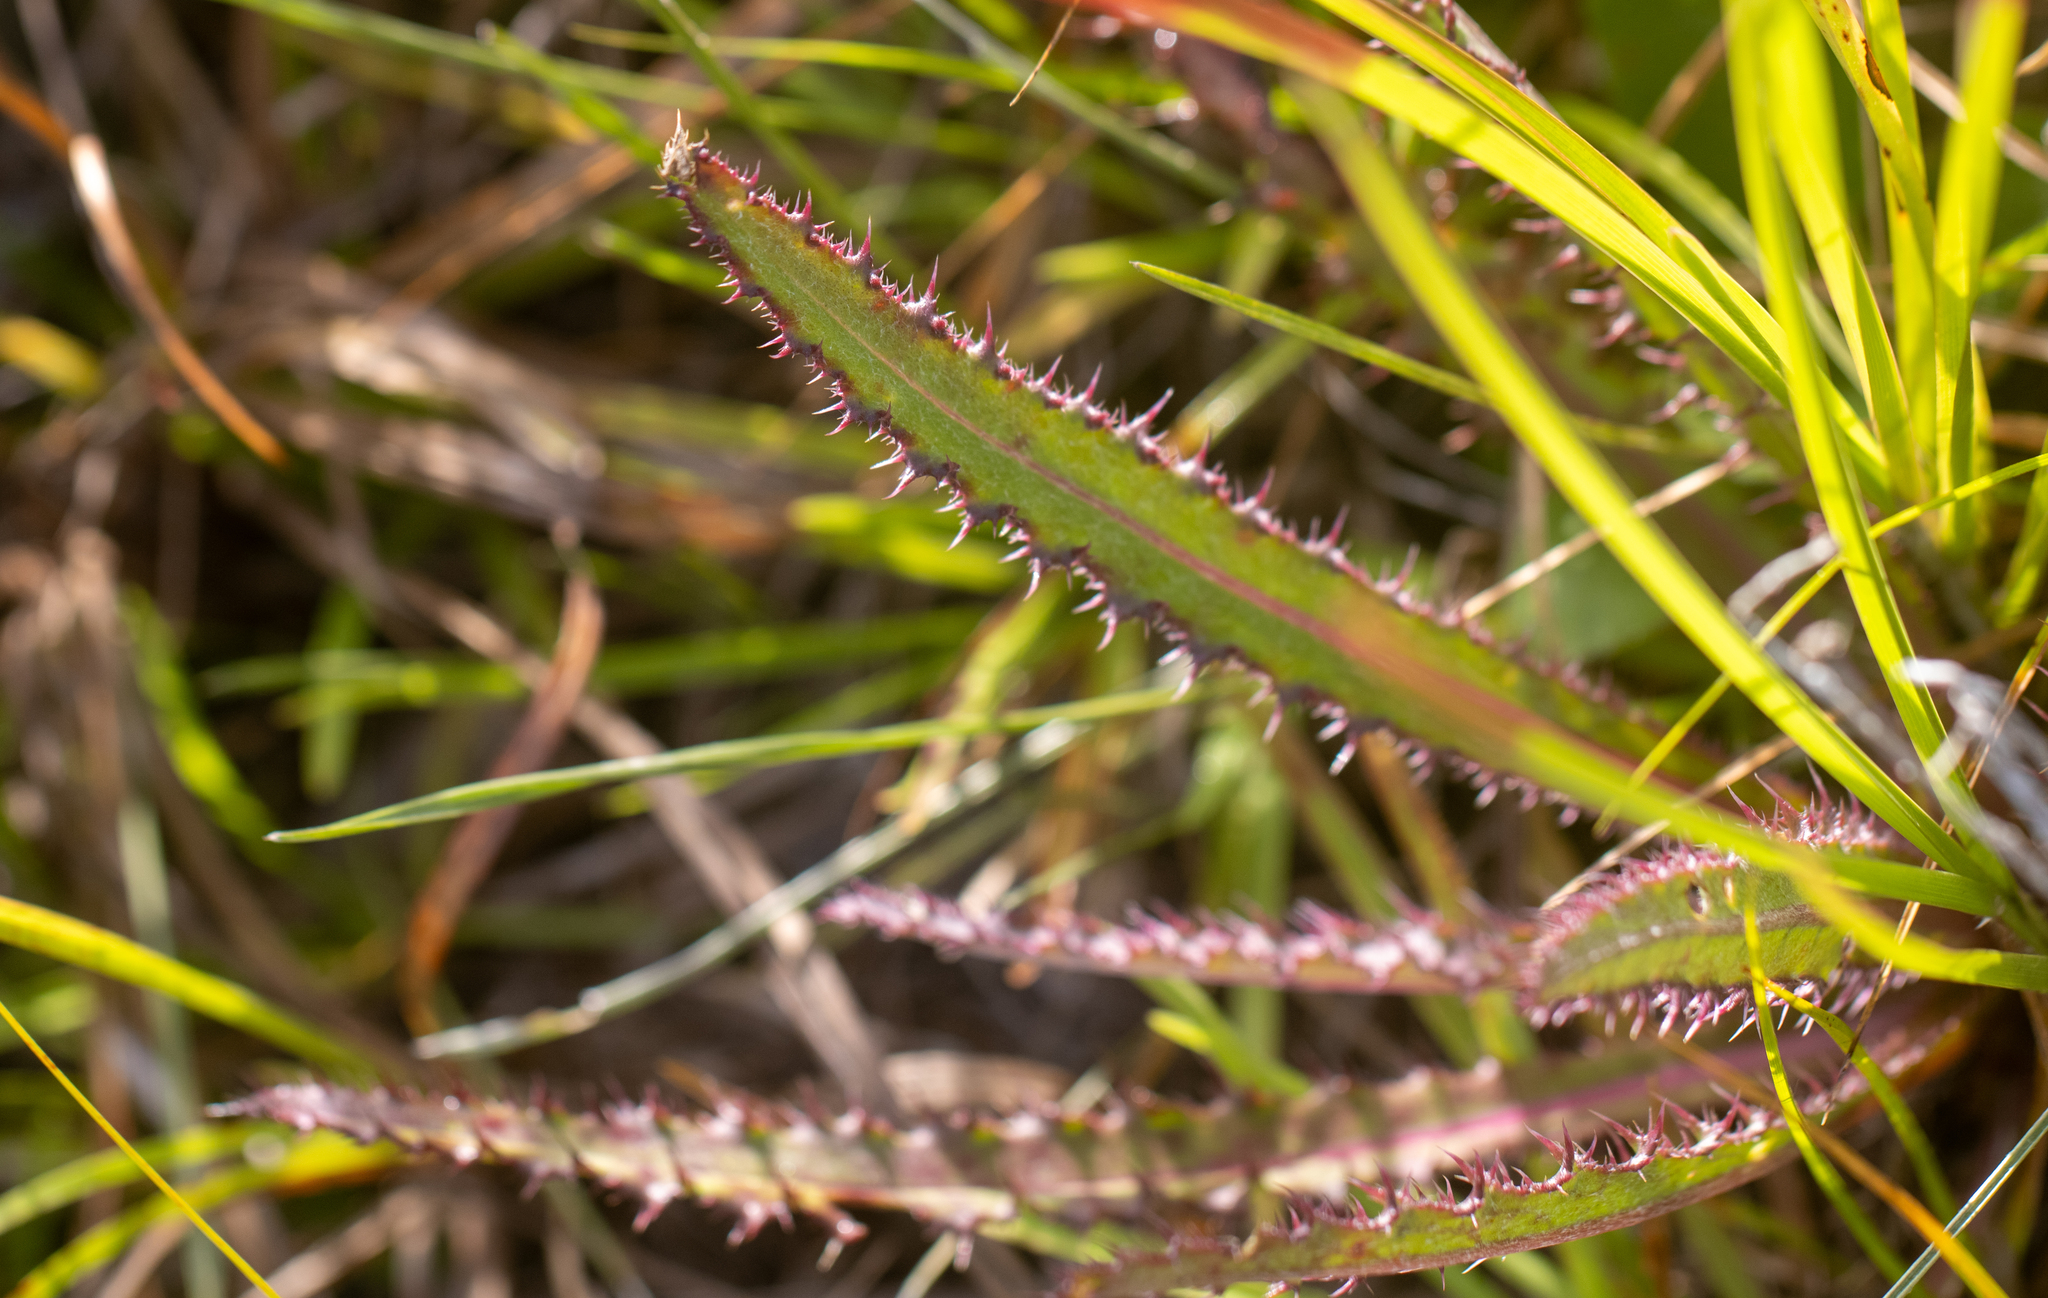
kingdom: Plantae
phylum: Tracheophyta
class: Magnoliopsida
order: Asterales
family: Asteraceae
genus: Cirsium
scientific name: Cirsium horridulum
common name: Bristly thistle
